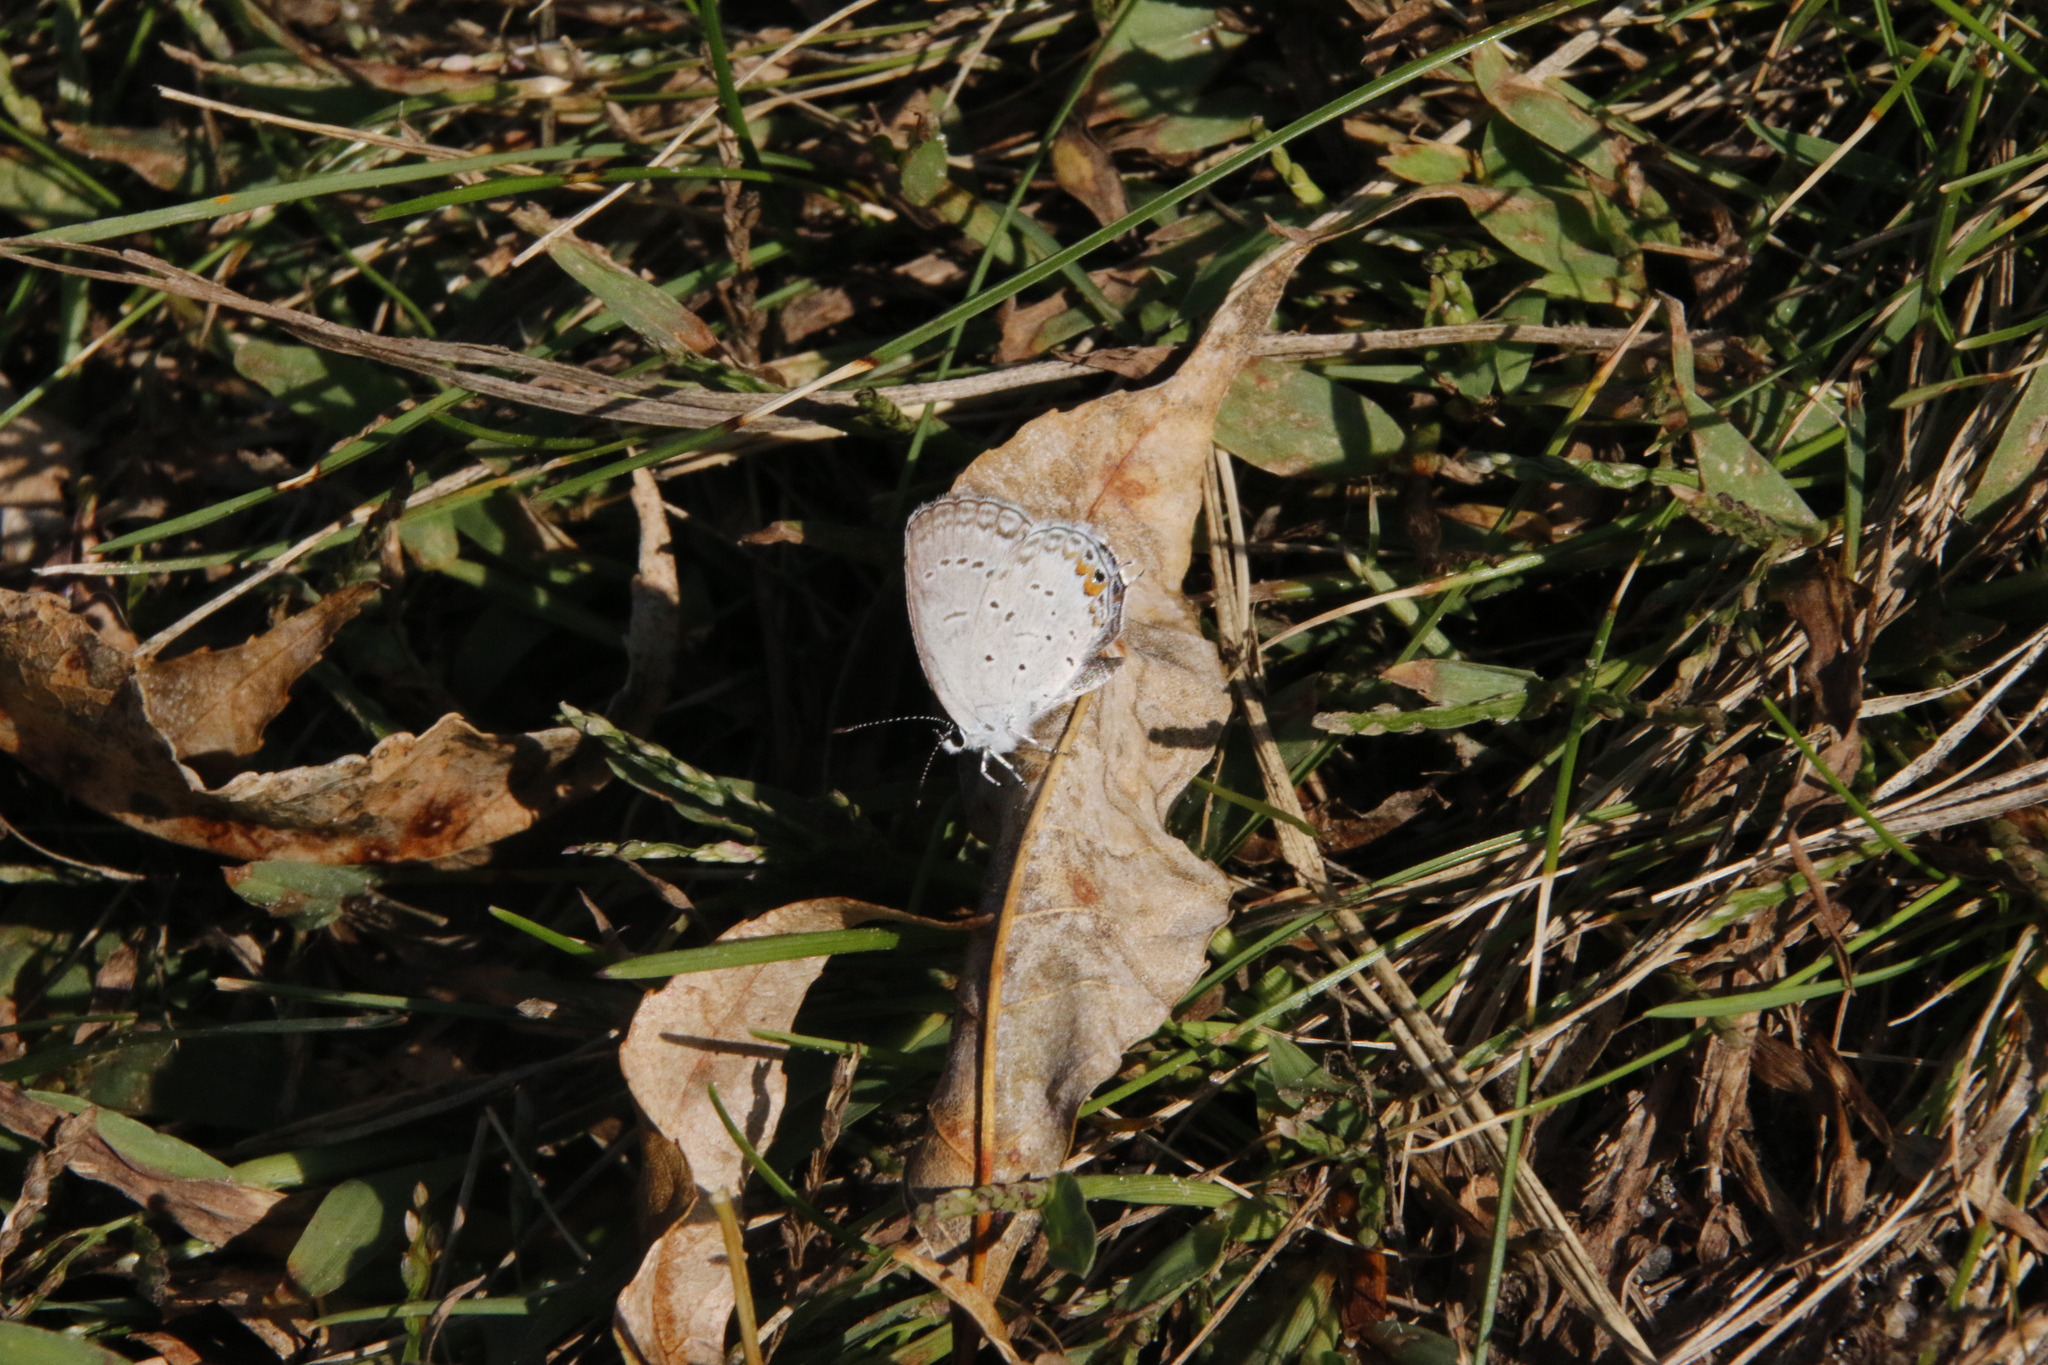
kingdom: Animalia
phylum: Arthropoda
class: Insecta
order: Lepidoptera
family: Lycaenidae
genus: Elkalyce
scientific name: Elkalyce comyntas
